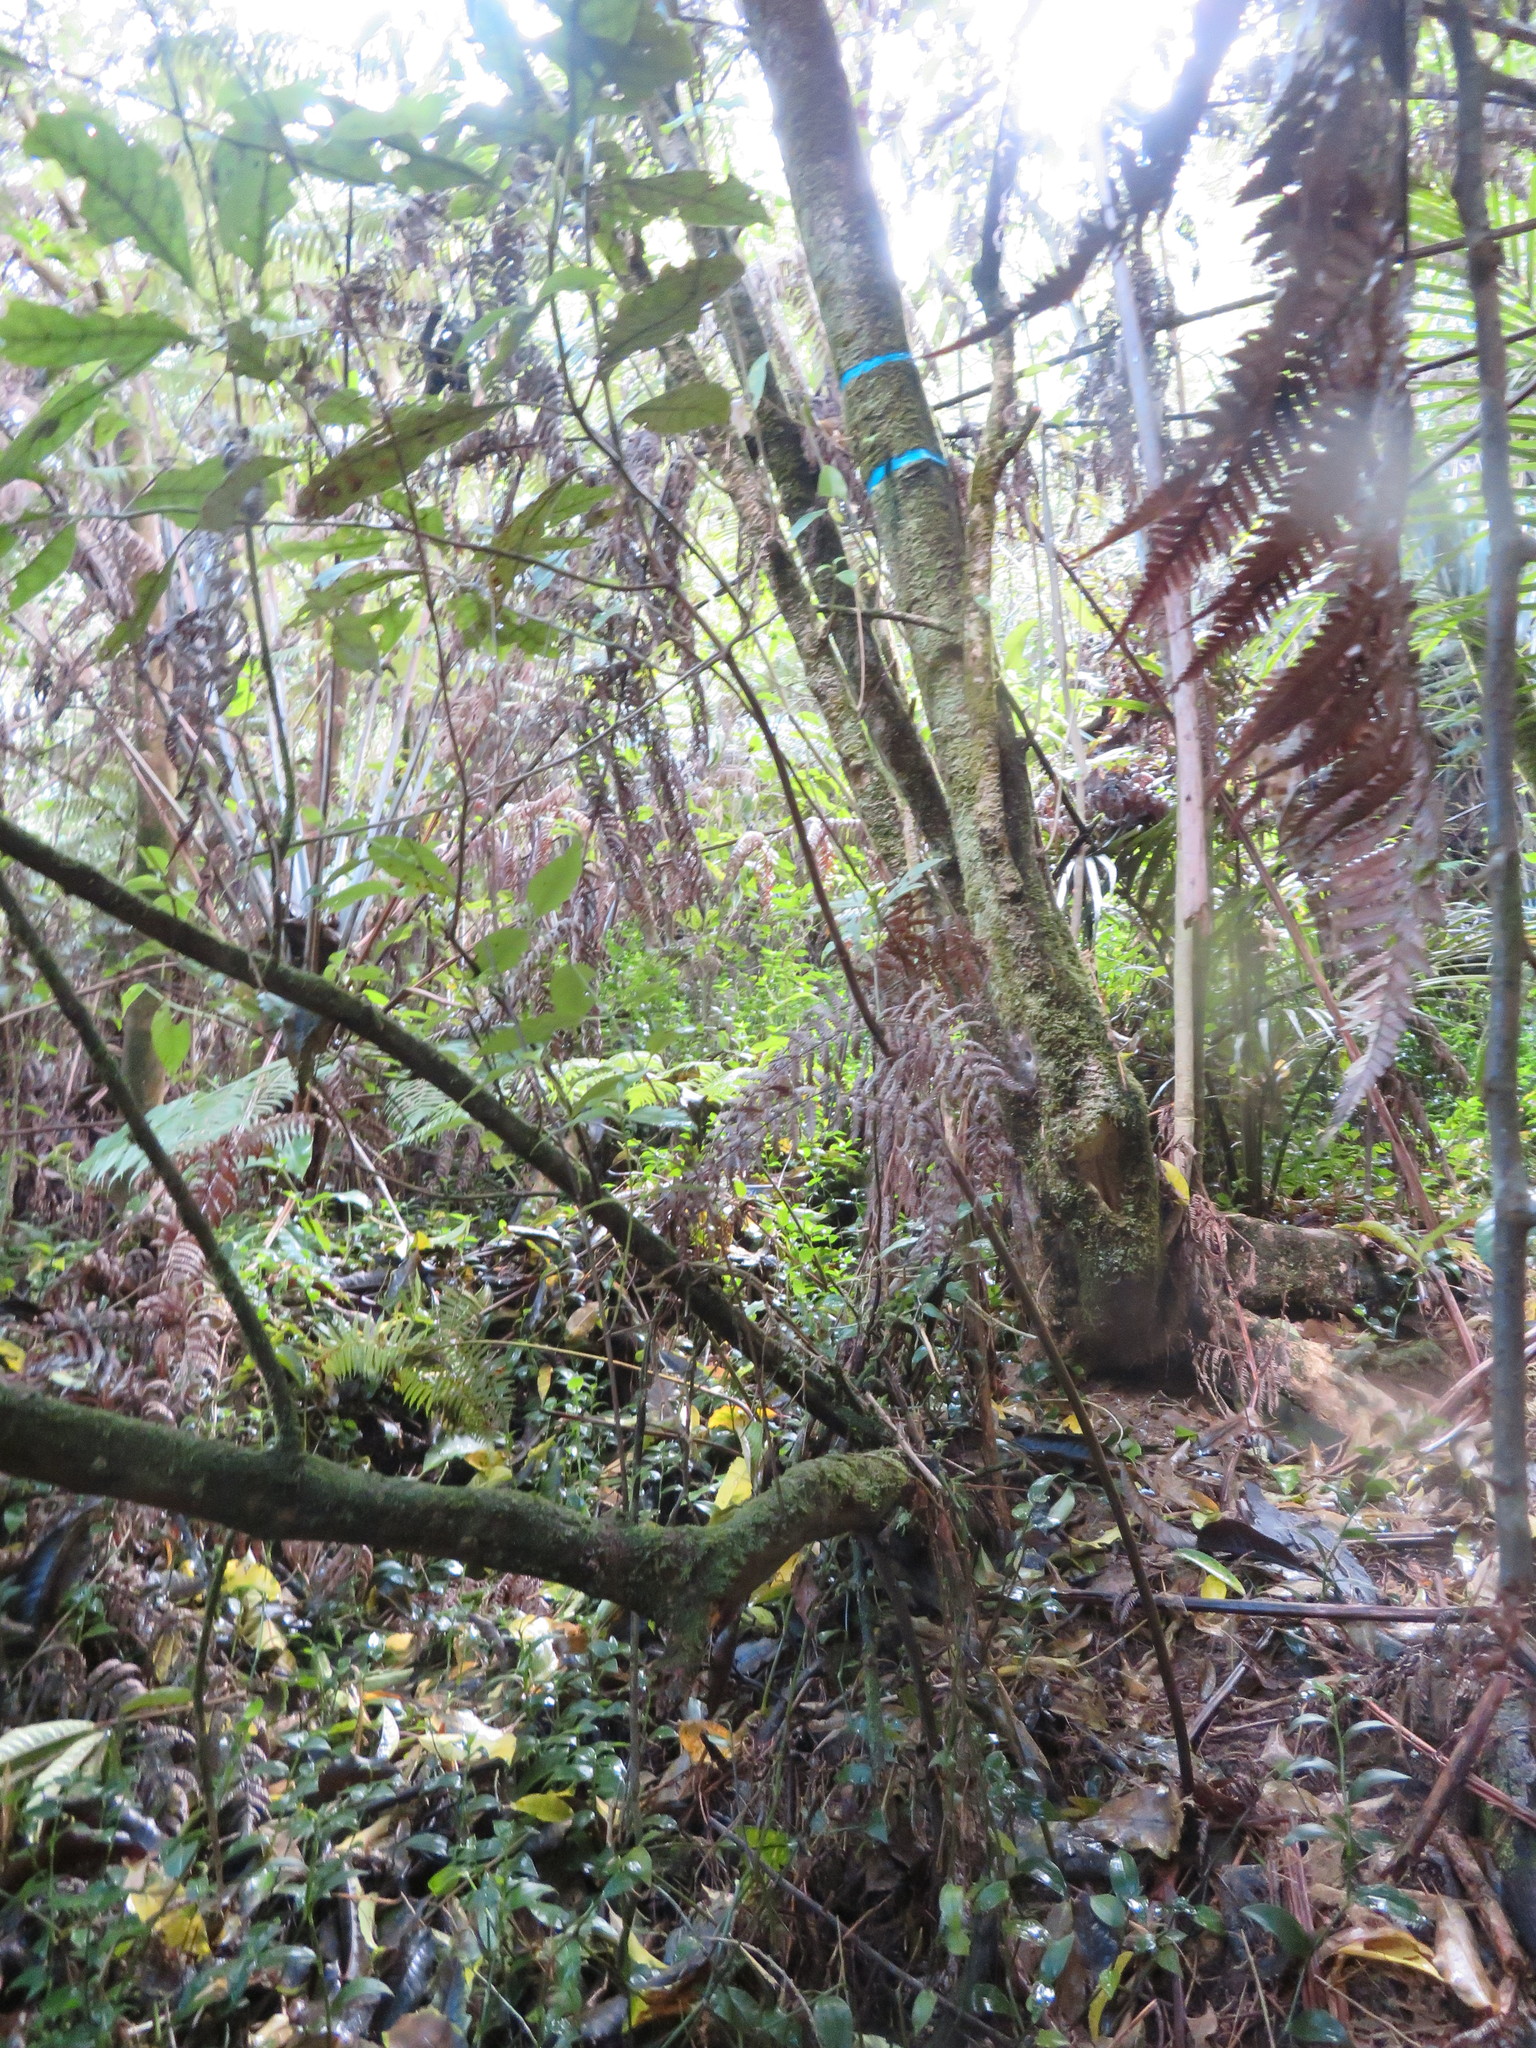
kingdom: Plantae
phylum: Tracheophyta
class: Liliopsida
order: Commelinales
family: Commelinaceae
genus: Tradescantia
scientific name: Tradescantia fluminensis
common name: Wandering-jew
